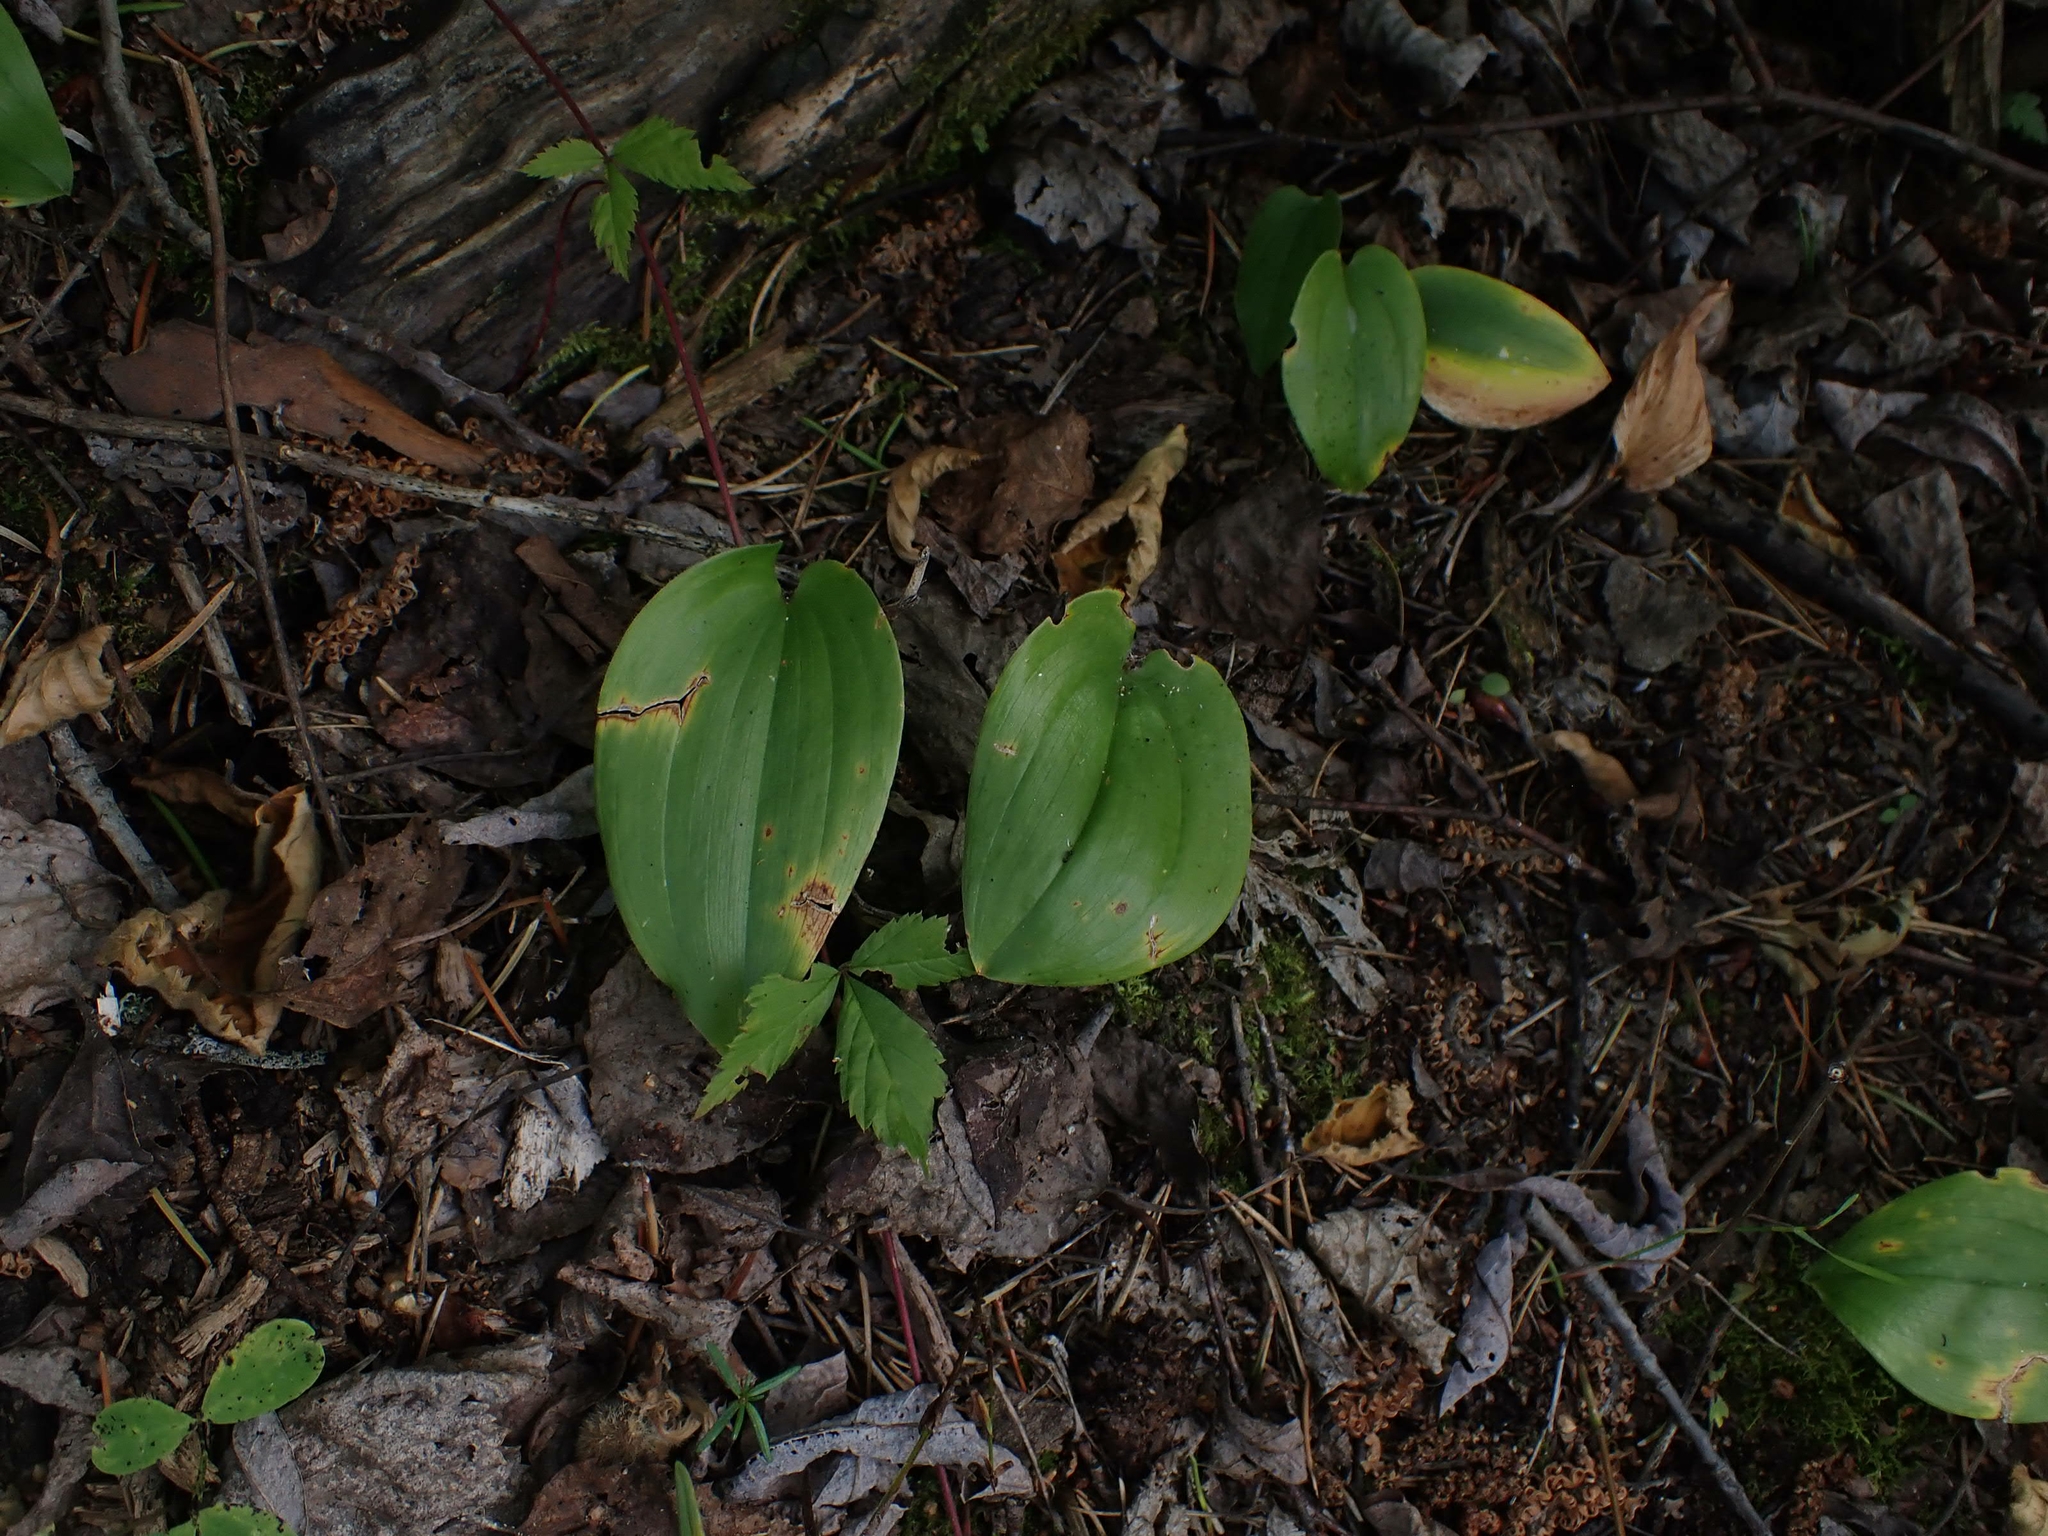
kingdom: Plantae
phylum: Tracheophyta
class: Liliopsida
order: Asparagales
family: Asparagaceae
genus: Maianthemum
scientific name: Maianthemum canadense
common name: False lily-of-the-valley
